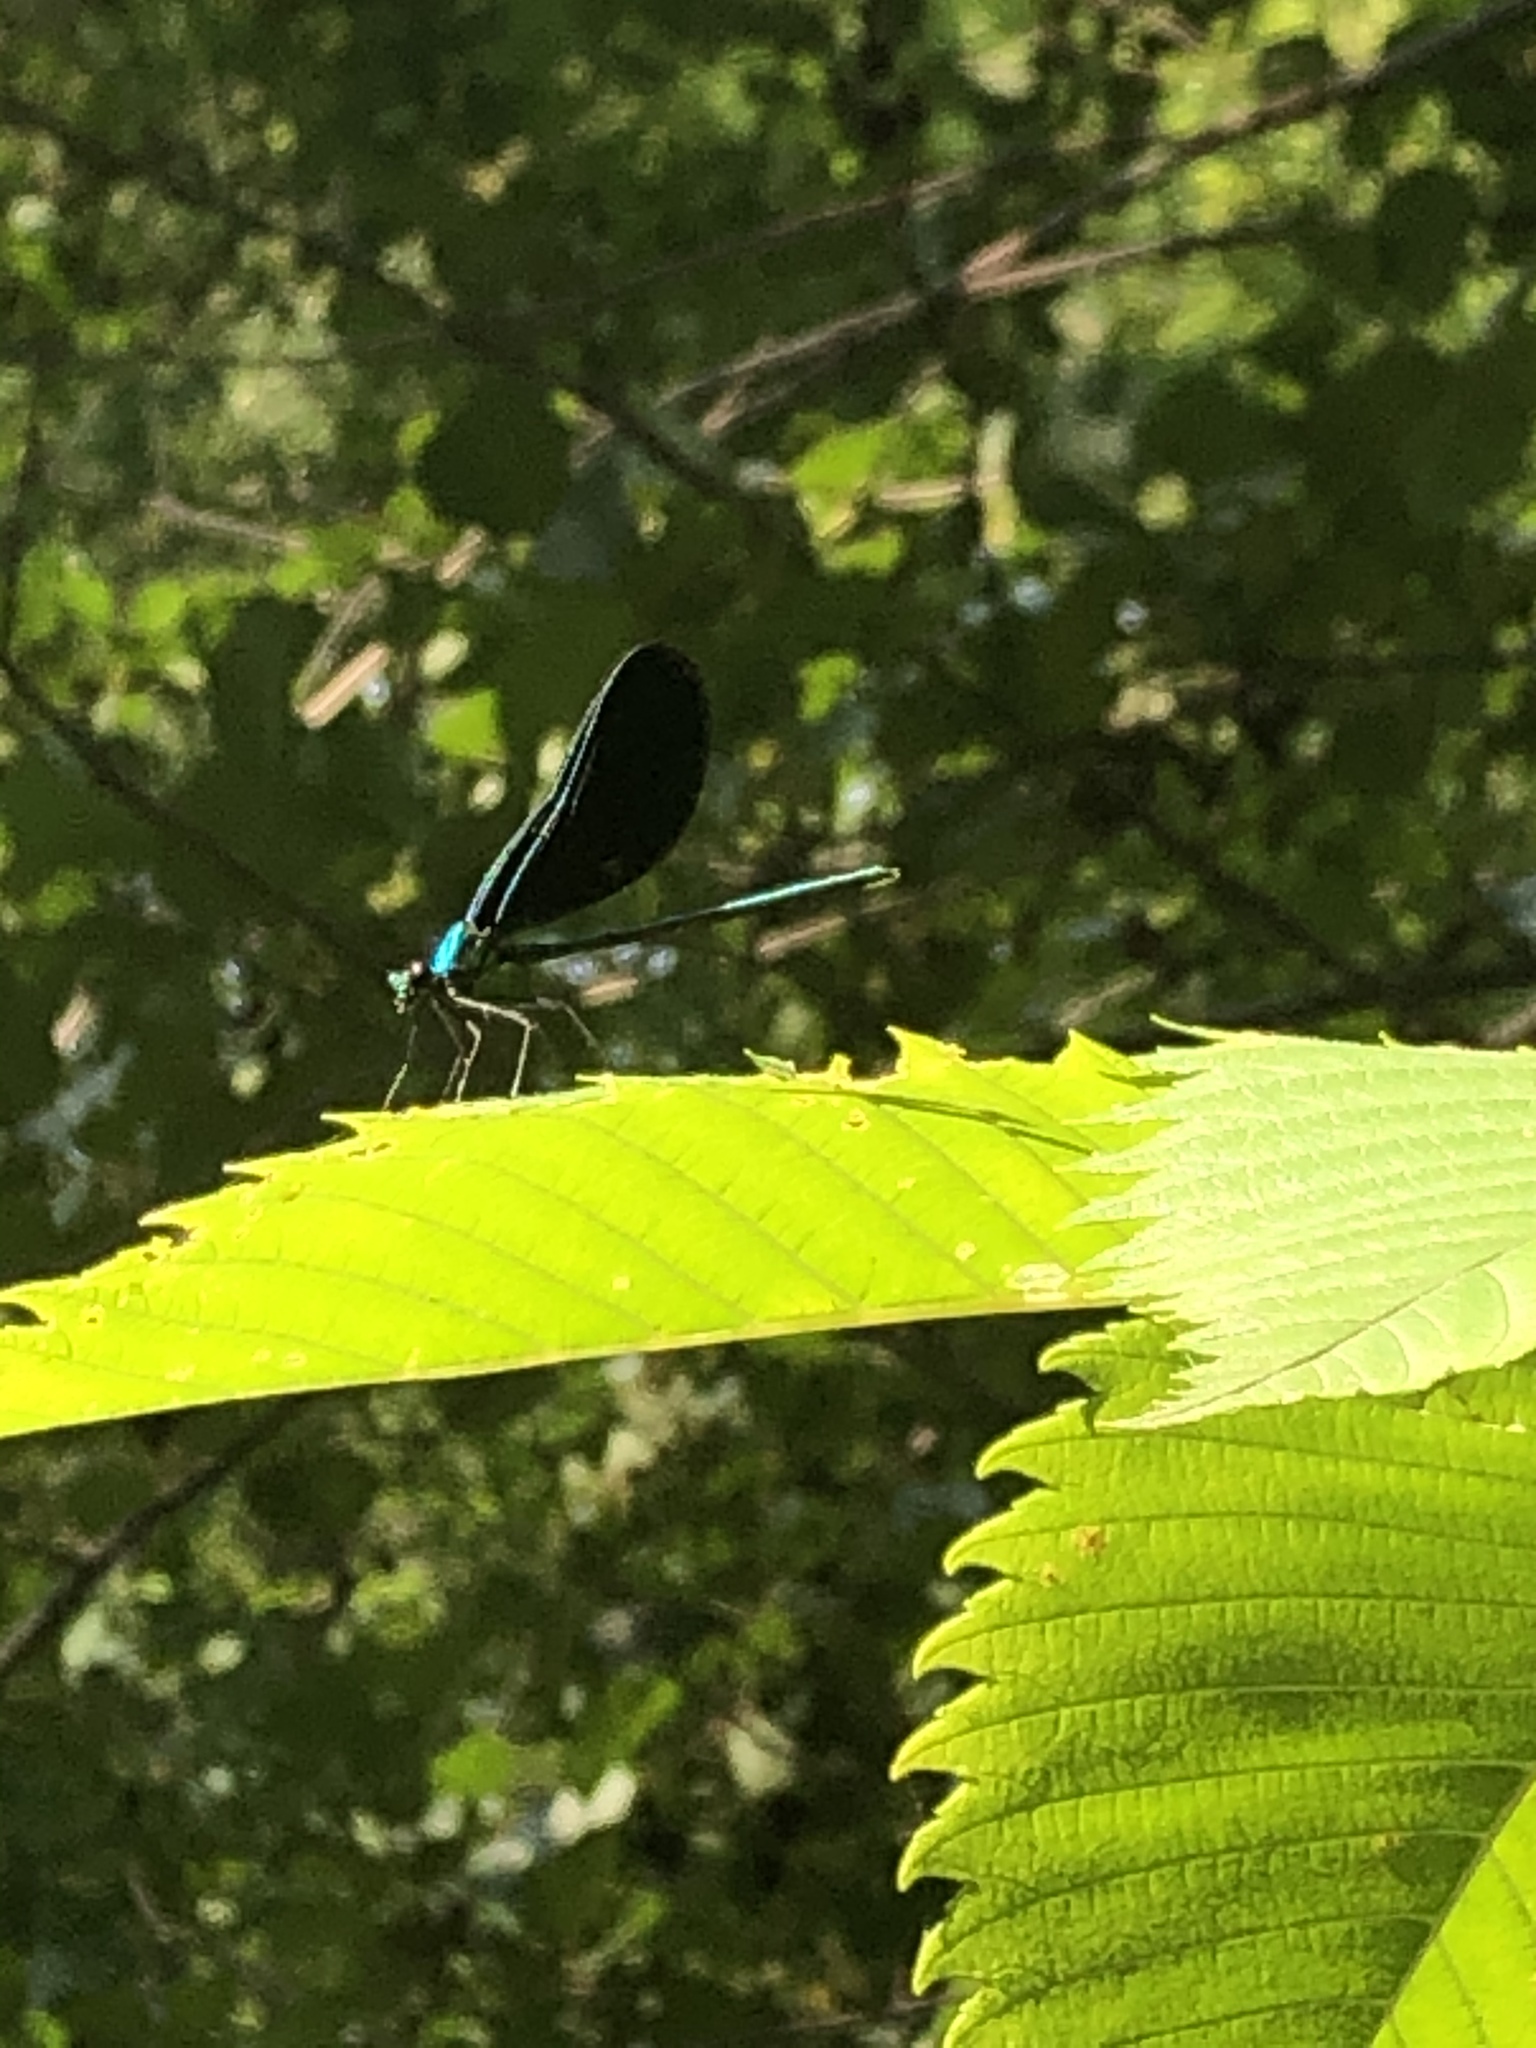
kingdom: Animalia
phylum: Arthropoda
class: Insecta
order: Odonata
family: Calopterygidae
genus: Calopteryx
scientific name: Calopteryx maculata
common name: Ebony jewelwing
